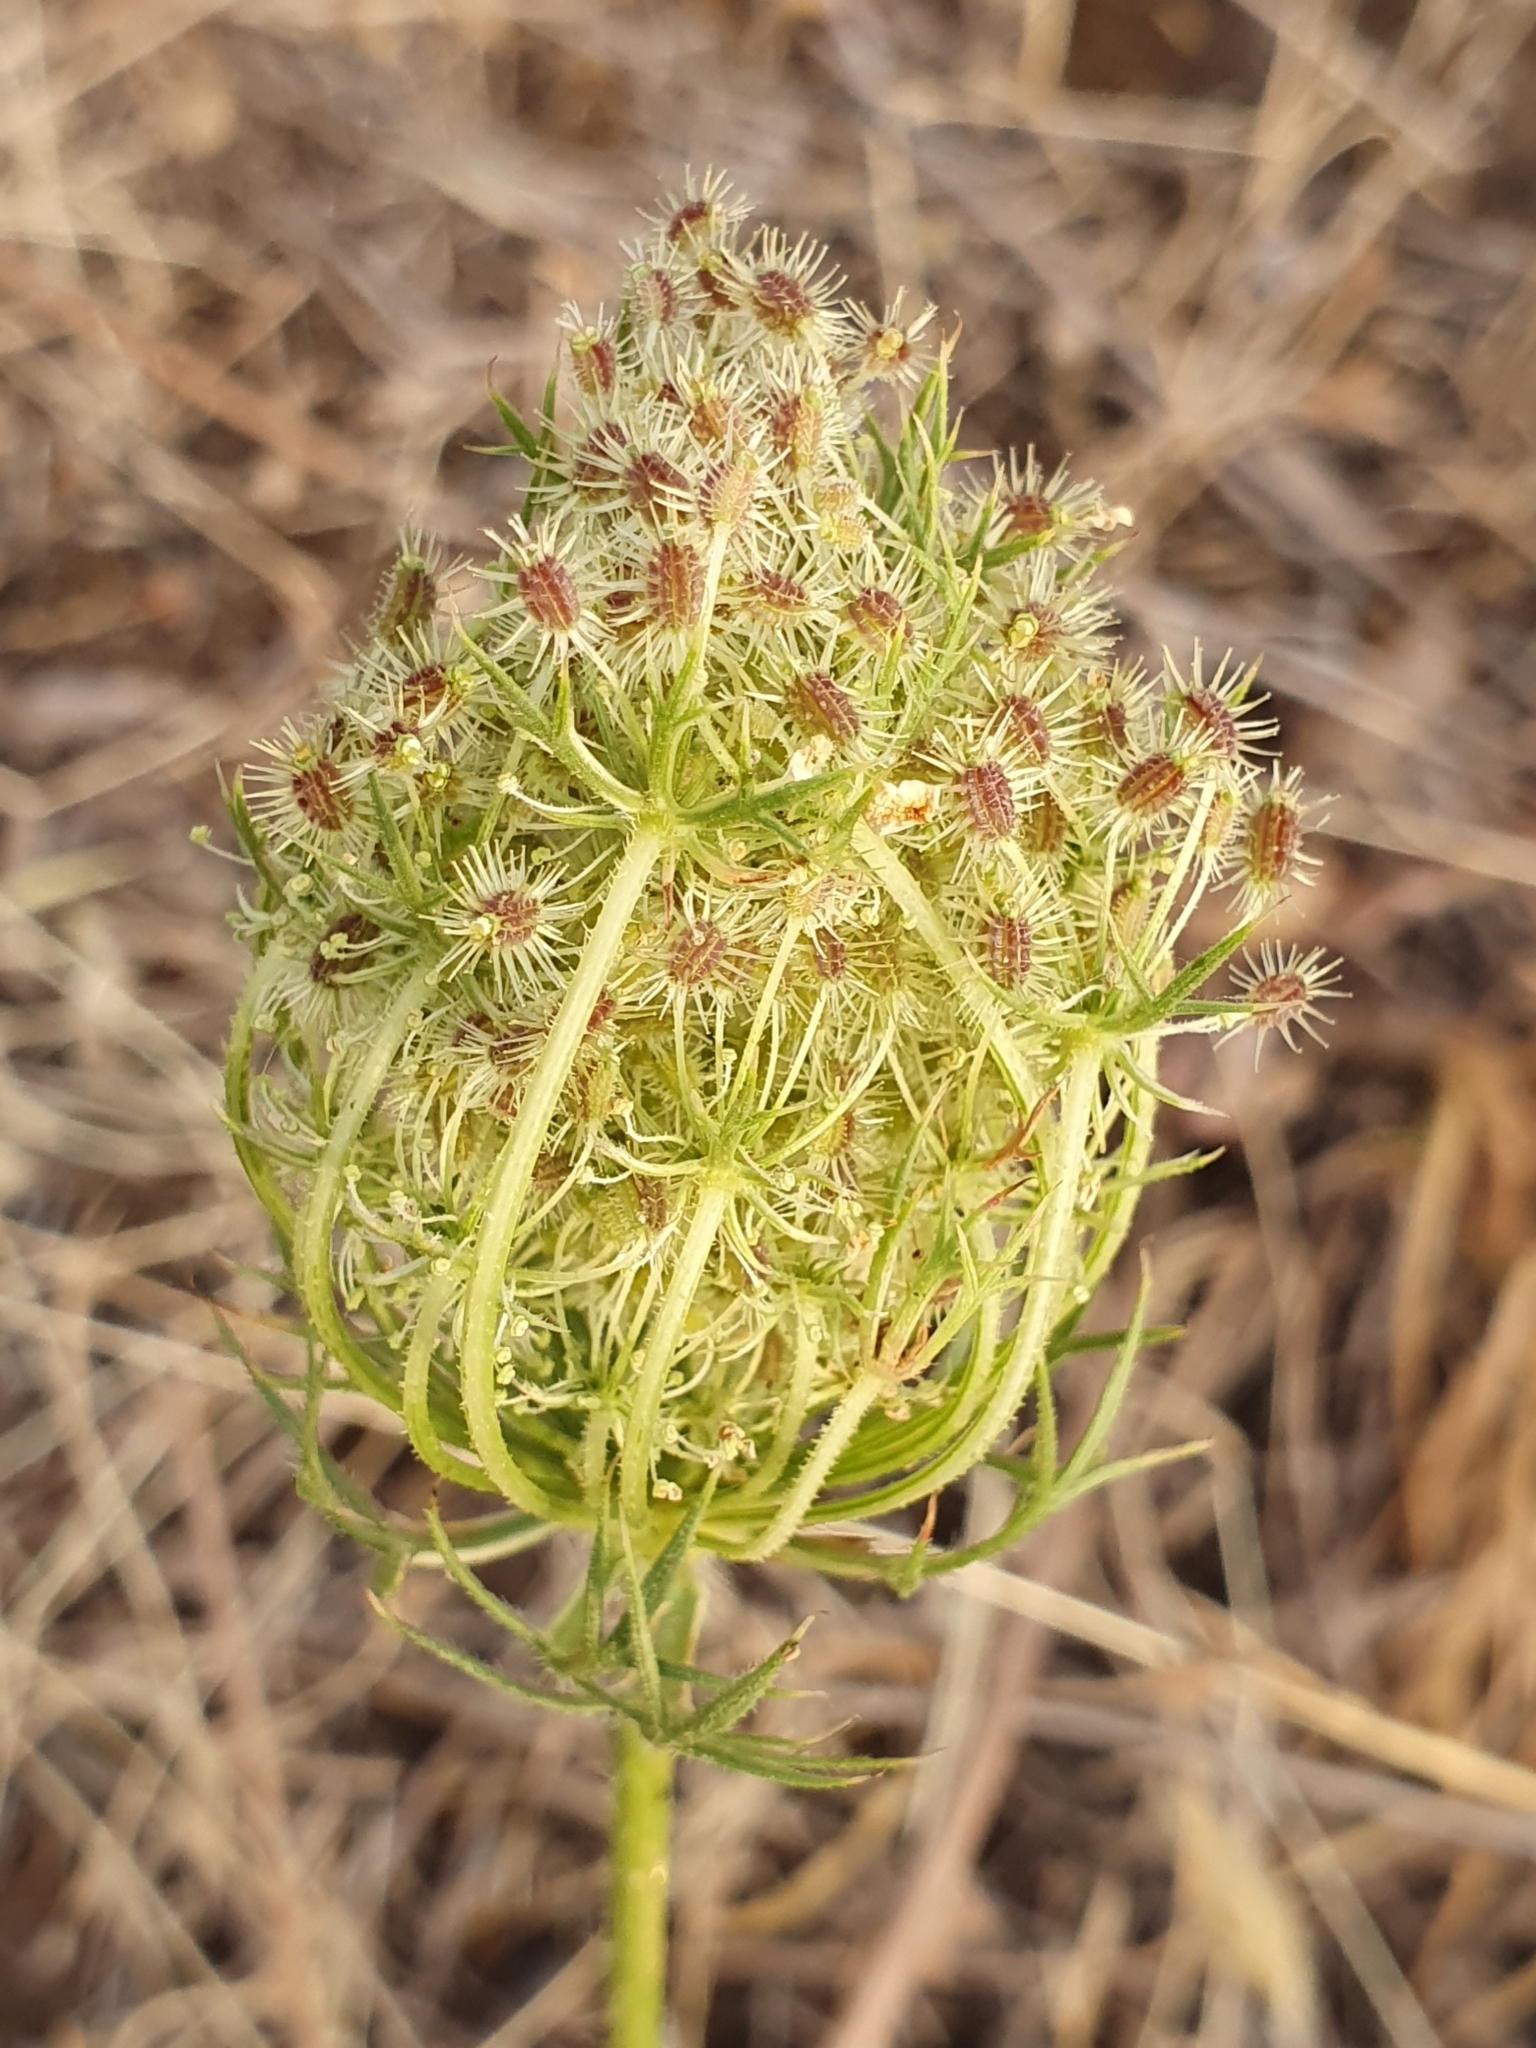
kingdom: Plantae
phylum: Tracheophyta
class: Magnoliopsida
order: Apiales
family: Apiaceae
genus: Daucus
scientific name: Daucus carota
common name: Wild carrot
